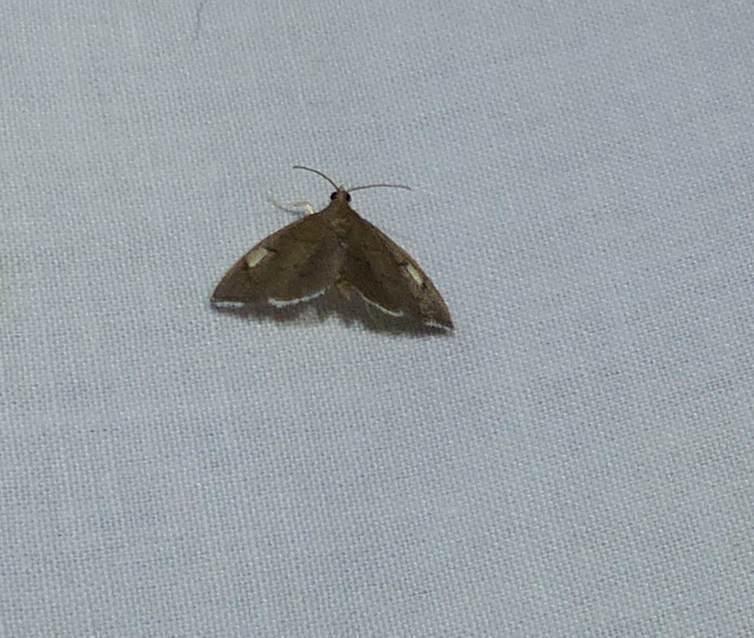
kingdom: Animalia
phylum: Arthropoda
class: Insecta
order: Lepidoptera
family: Crambidae
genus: Perispasta
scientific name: Perispasta caeculalis
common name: Titian peale's moth
